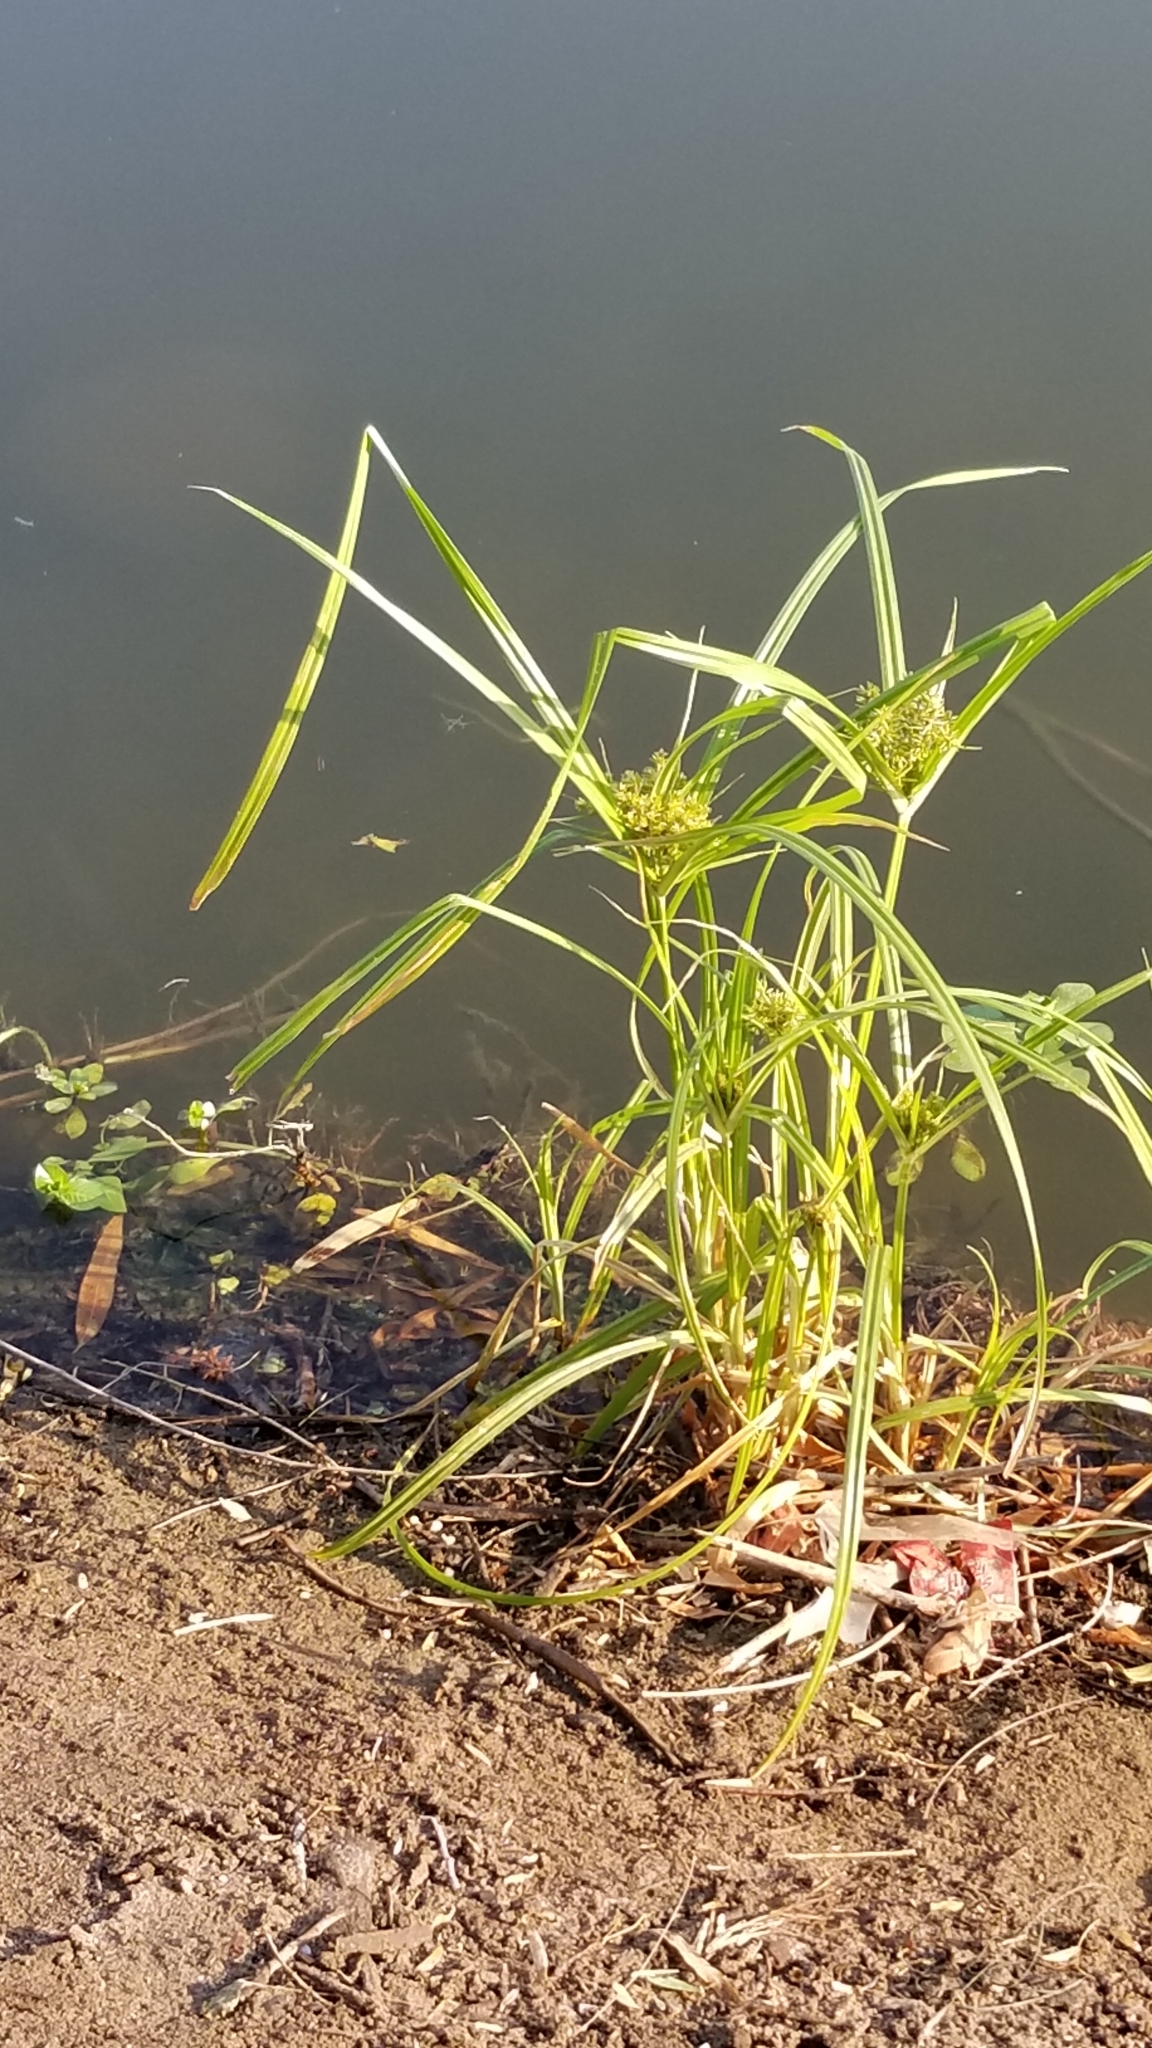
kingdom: Plantae
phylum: Tracheophyta
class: Liliopsida
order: Poales
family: Cyperaceae
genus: Cyperus
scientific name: Cyperus odoratus
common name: Fragrant flatsedge
